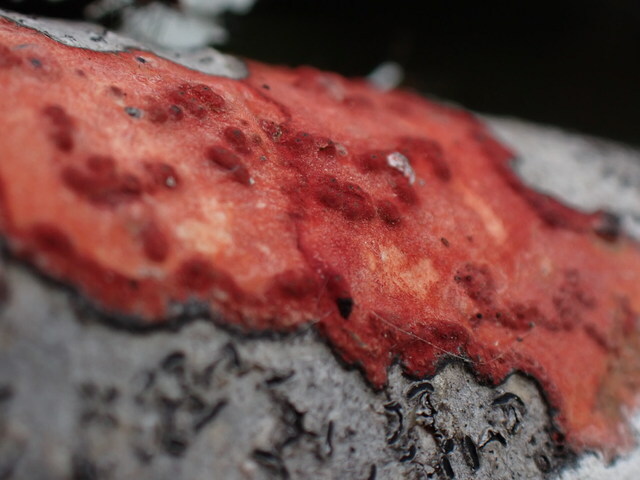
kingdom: Fungi
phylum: Ascomycota
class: Eurotiomycetes
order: Pyrenulales
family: Pyrenulaceae
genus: Pyrenula
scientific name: Pyrenula cruenta
